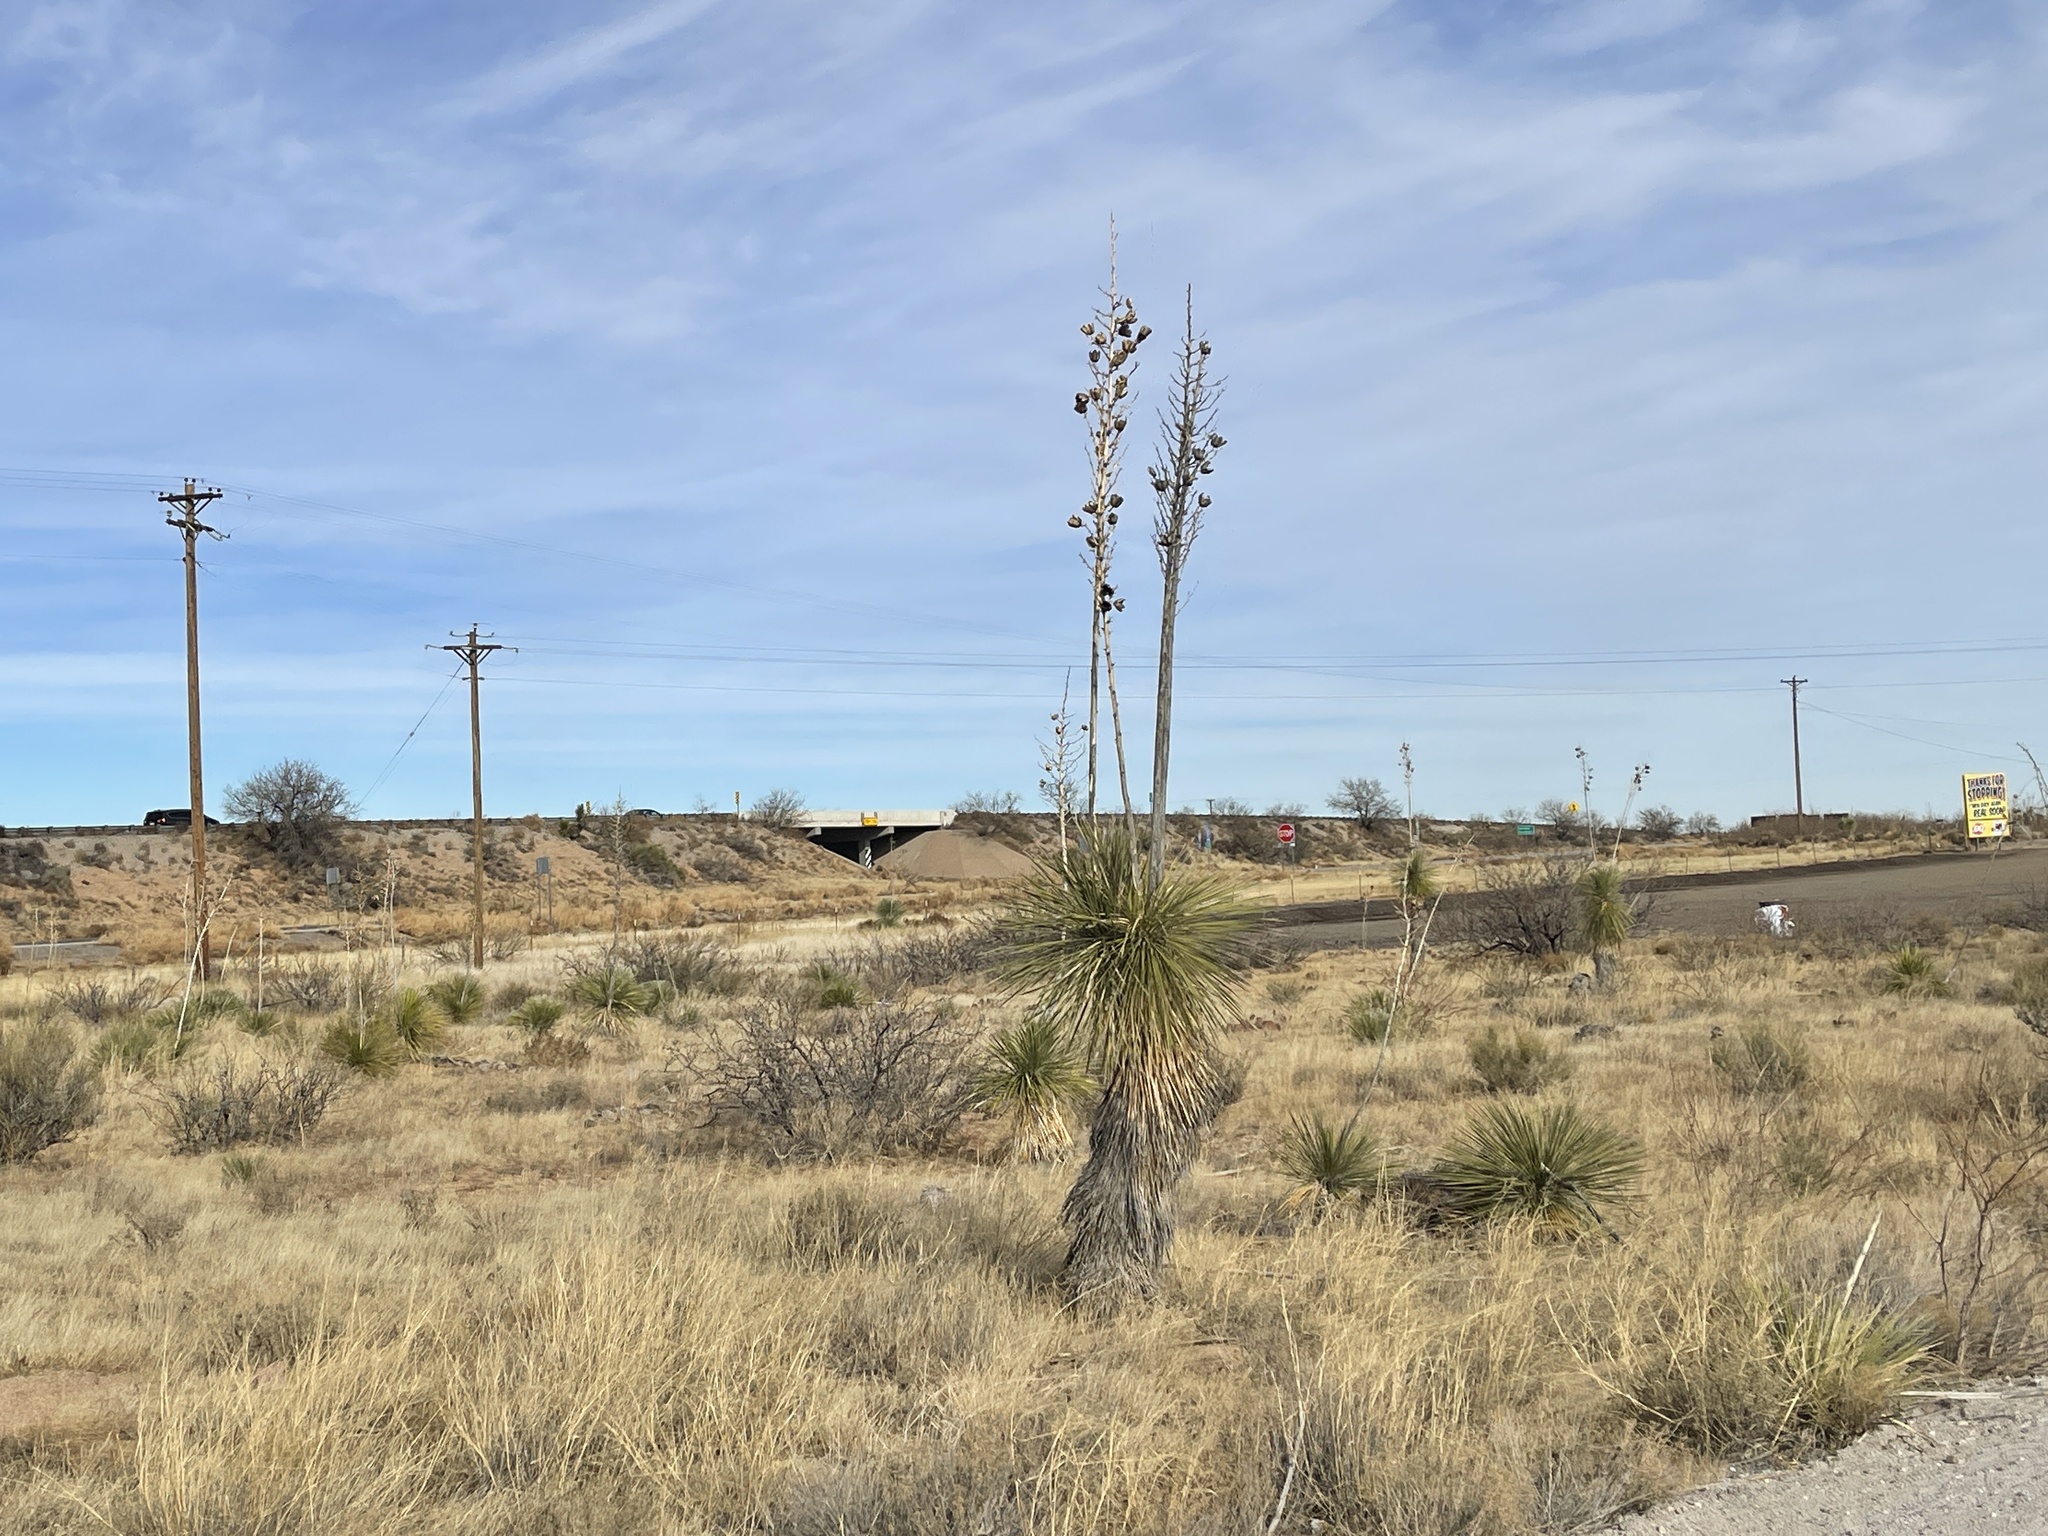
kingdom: Plantae
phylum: Tracheophyta
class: Liliopsida
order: Asparagales
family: Asparagaceae
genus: Yucca
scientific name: Yucca elata
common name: Palmella
